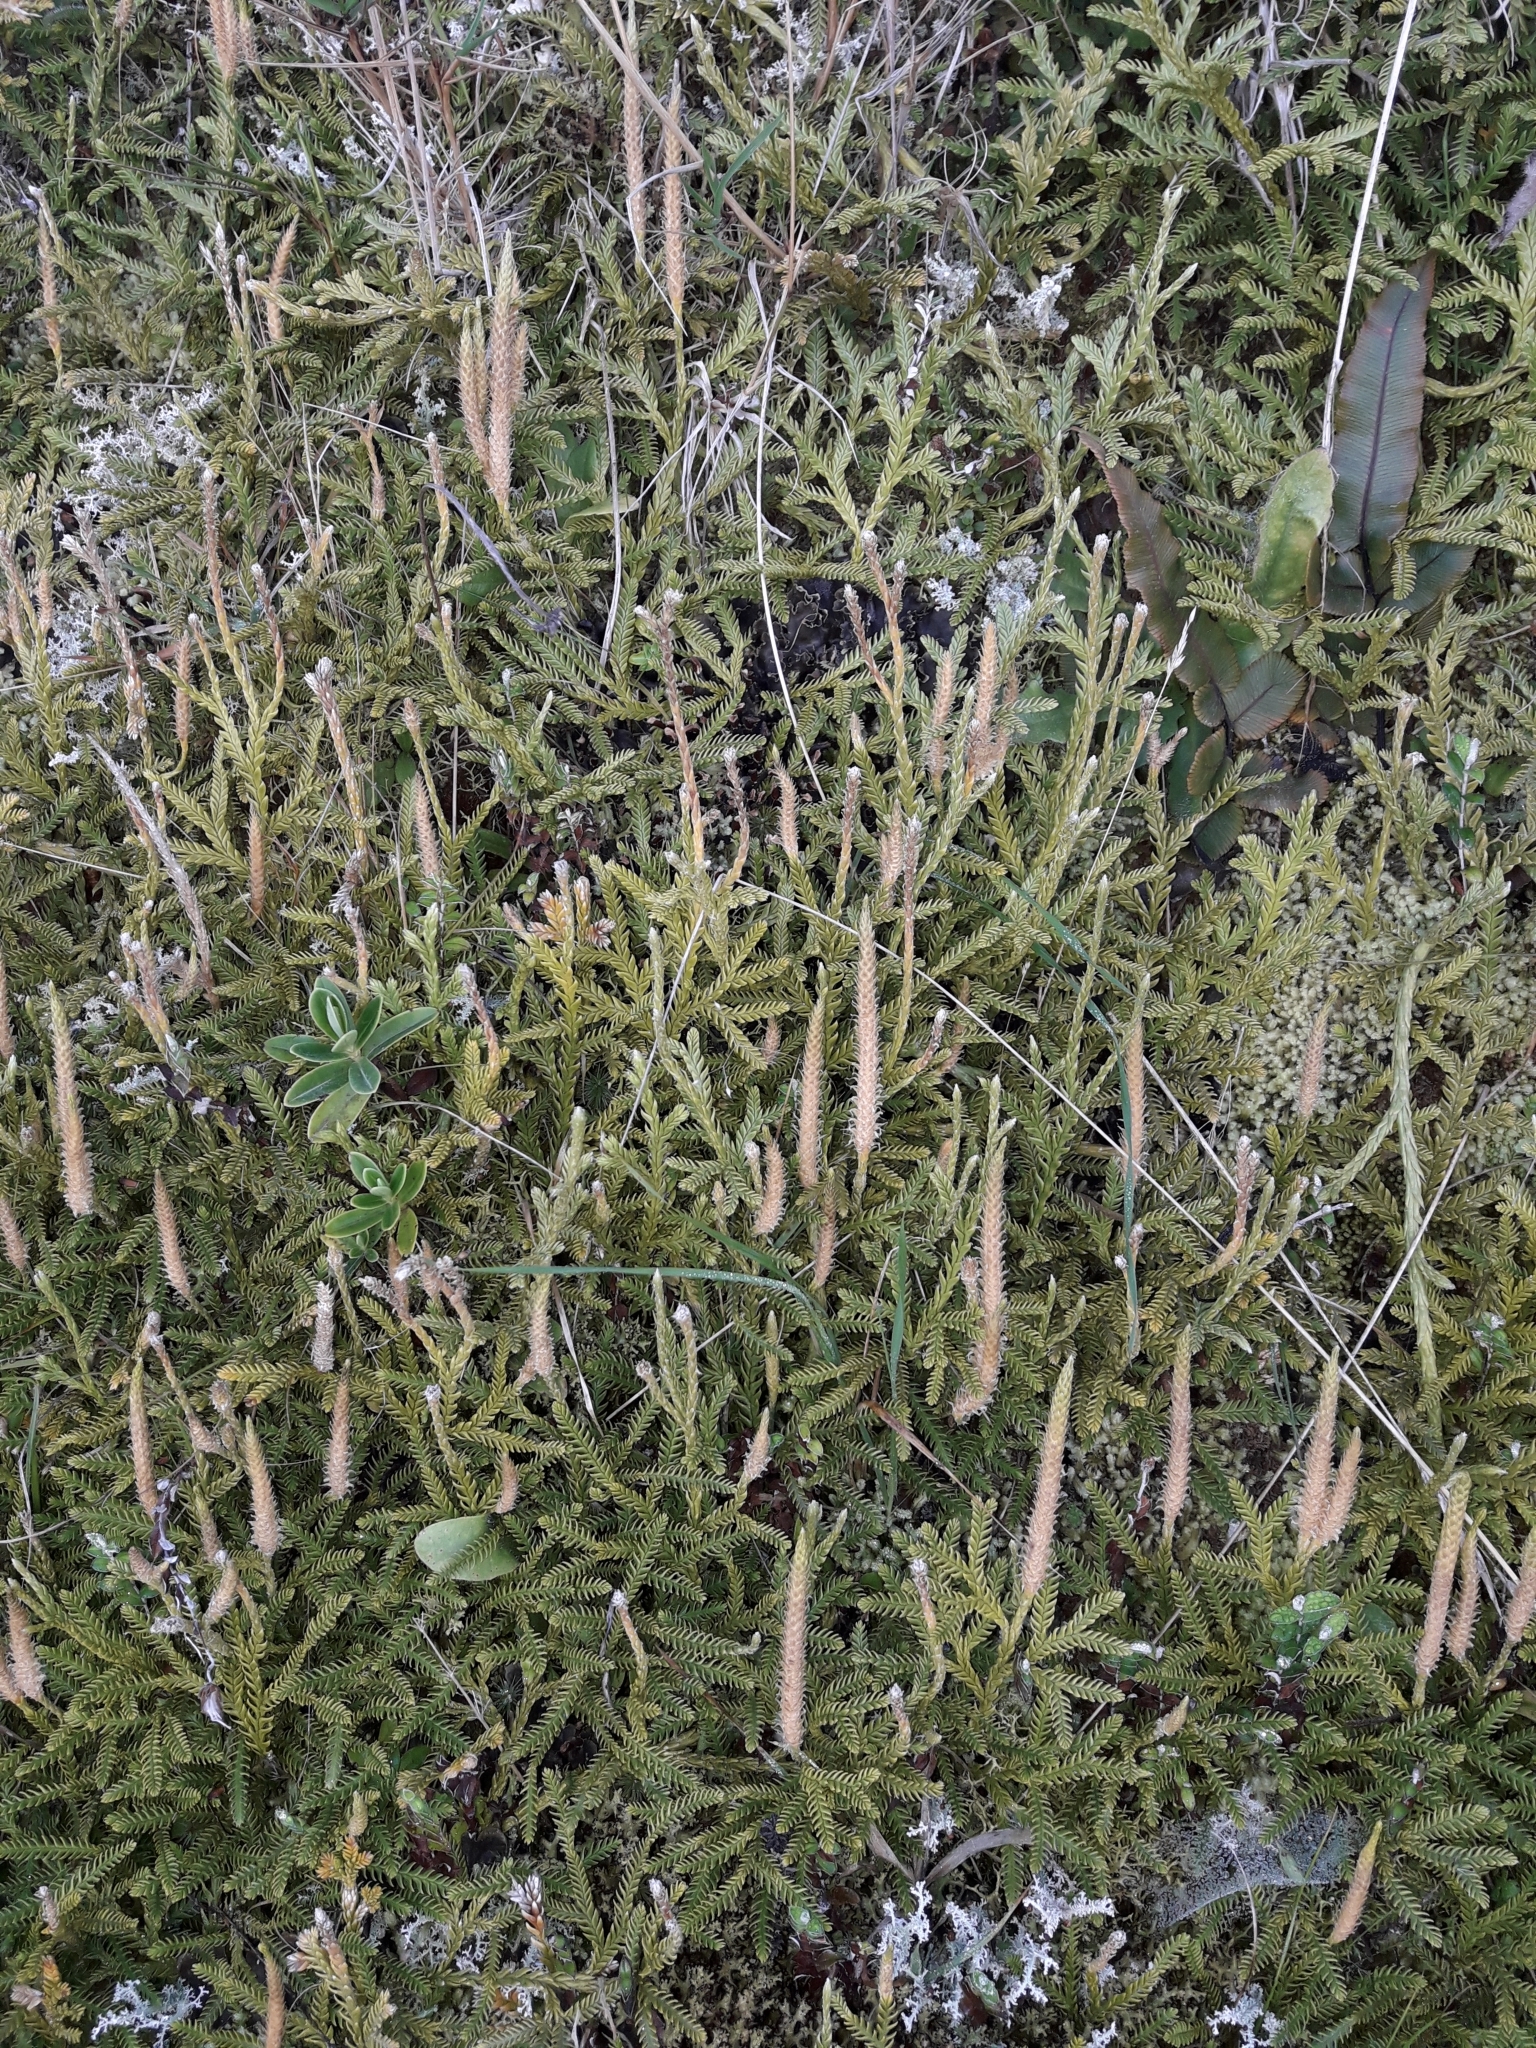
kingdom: Plantae
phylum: Tracheophyta
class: Lycopodiopsida
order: Lycopodiales
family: Lycopodiaceae
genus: Diphasium
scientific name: Diphasium scariosum
